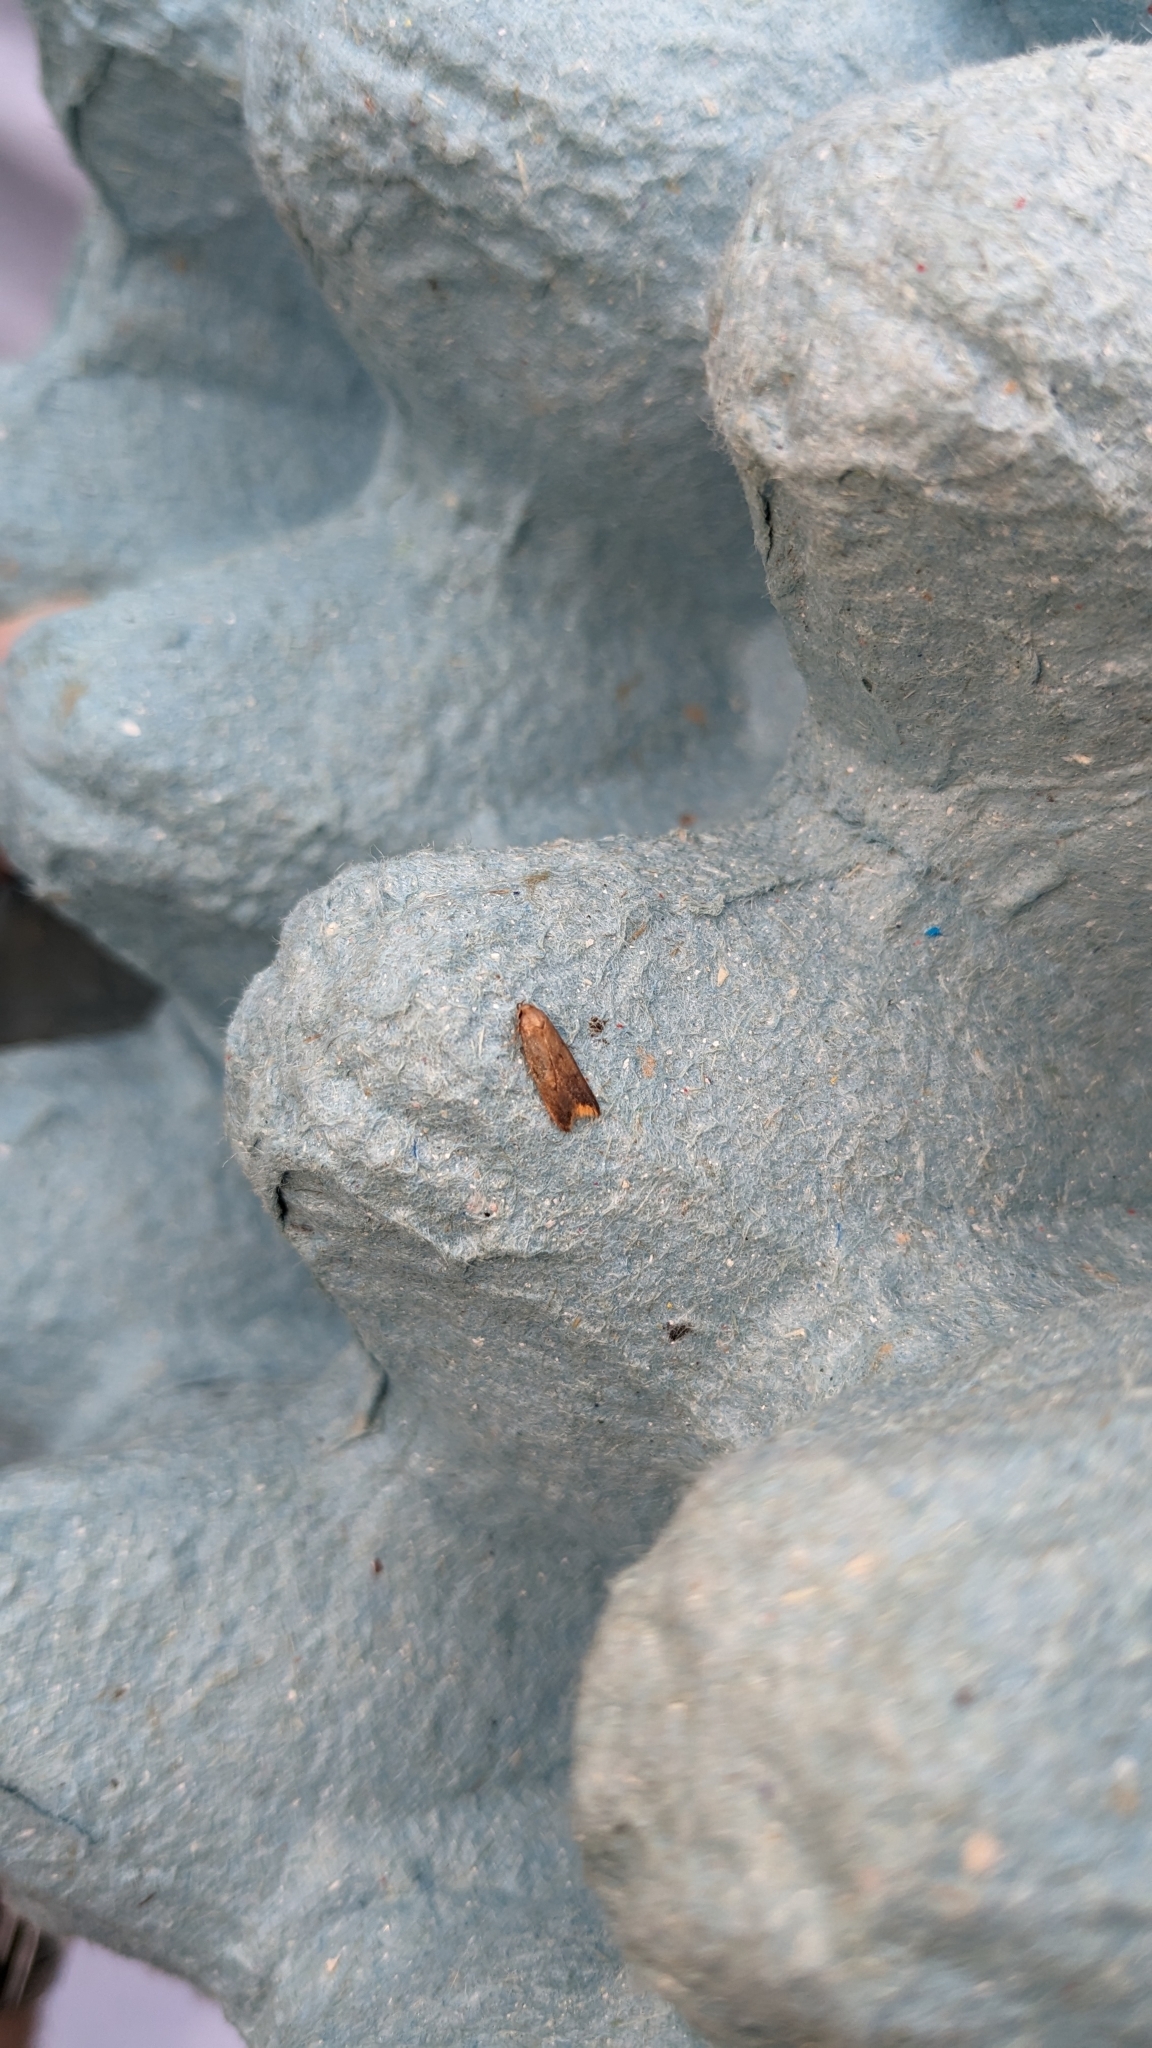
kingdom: Animalia
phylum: Arthropoda
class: Insecta
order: Lepidoptera
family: Oecophoridae
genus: Tachystola
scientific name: Tachystola acroxantha
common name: Ruddy streak
